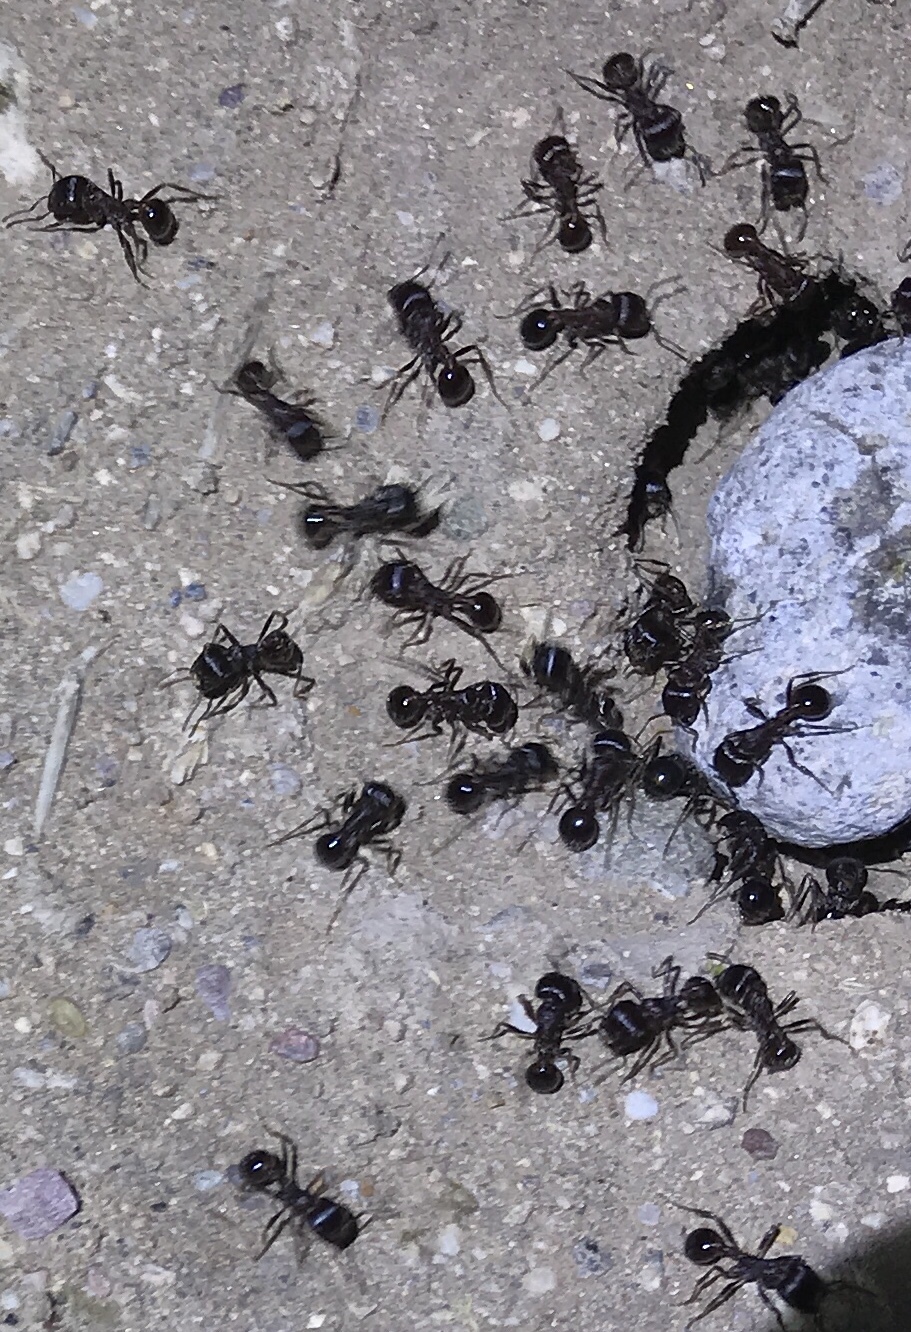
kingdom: Animalia
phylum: Arthropoda
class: Insecta
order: Hymenoptera
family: Formicidae
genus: Pogonomyrmex
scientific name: Pogonomyrmex rugosus
